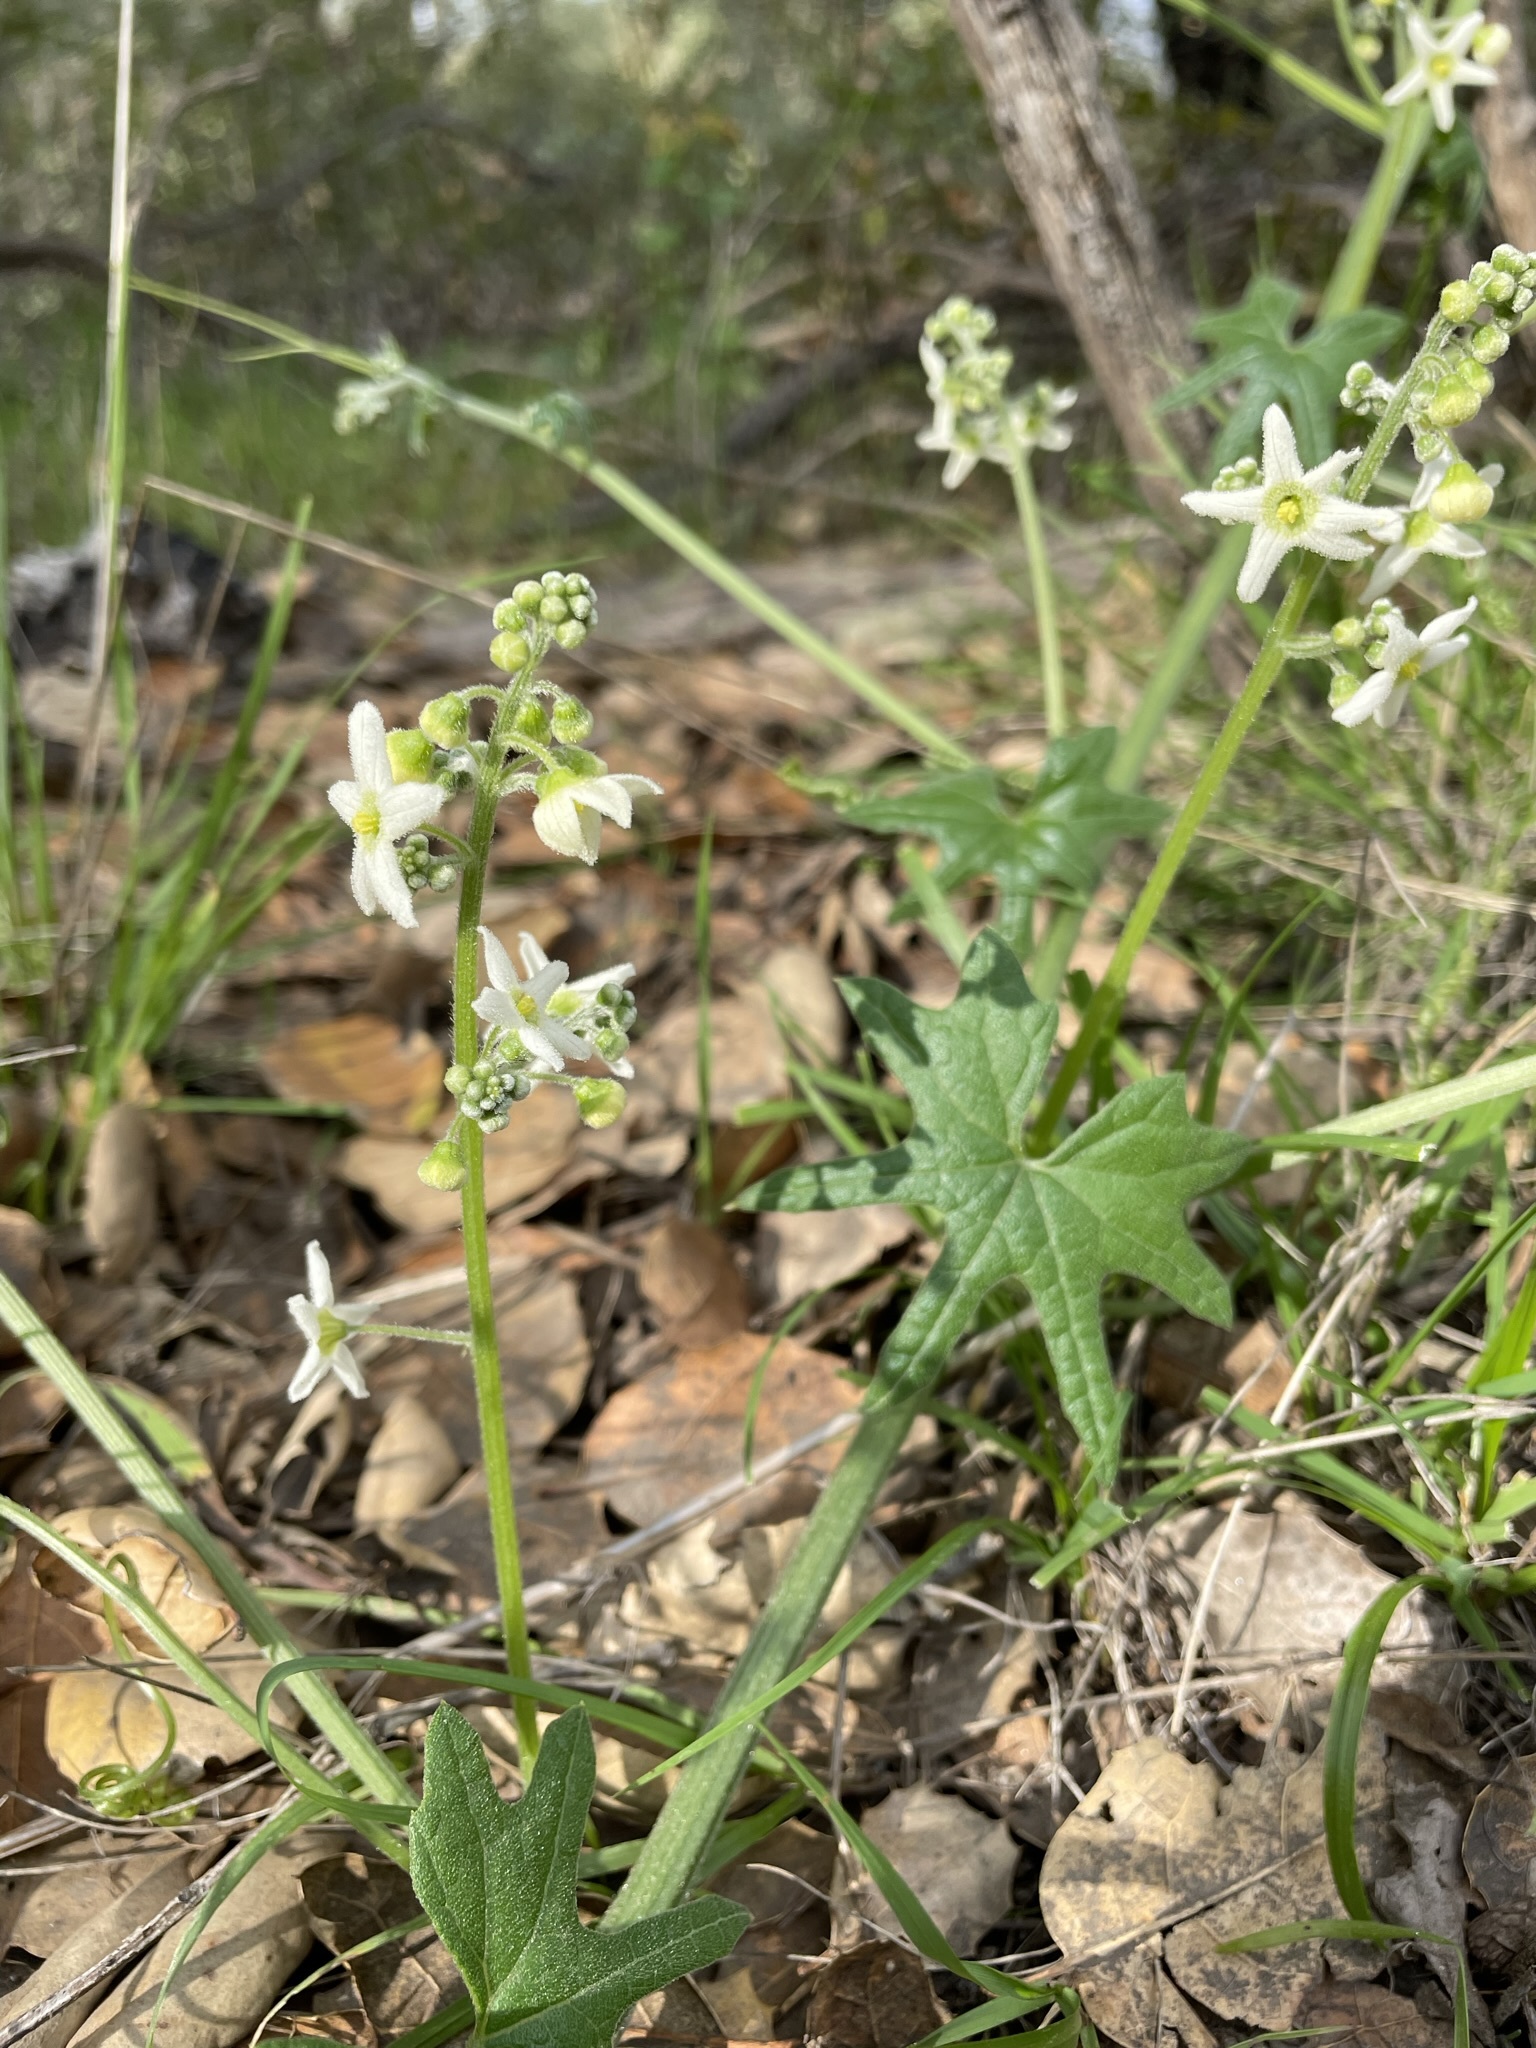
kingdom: Plantae
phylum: Tracheophyta
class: Magnoliopsida
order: Cucurbitales
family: Cucurbitaceae
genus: Marah
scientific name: Marah macrocarpa
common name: Cucamonga manroot
